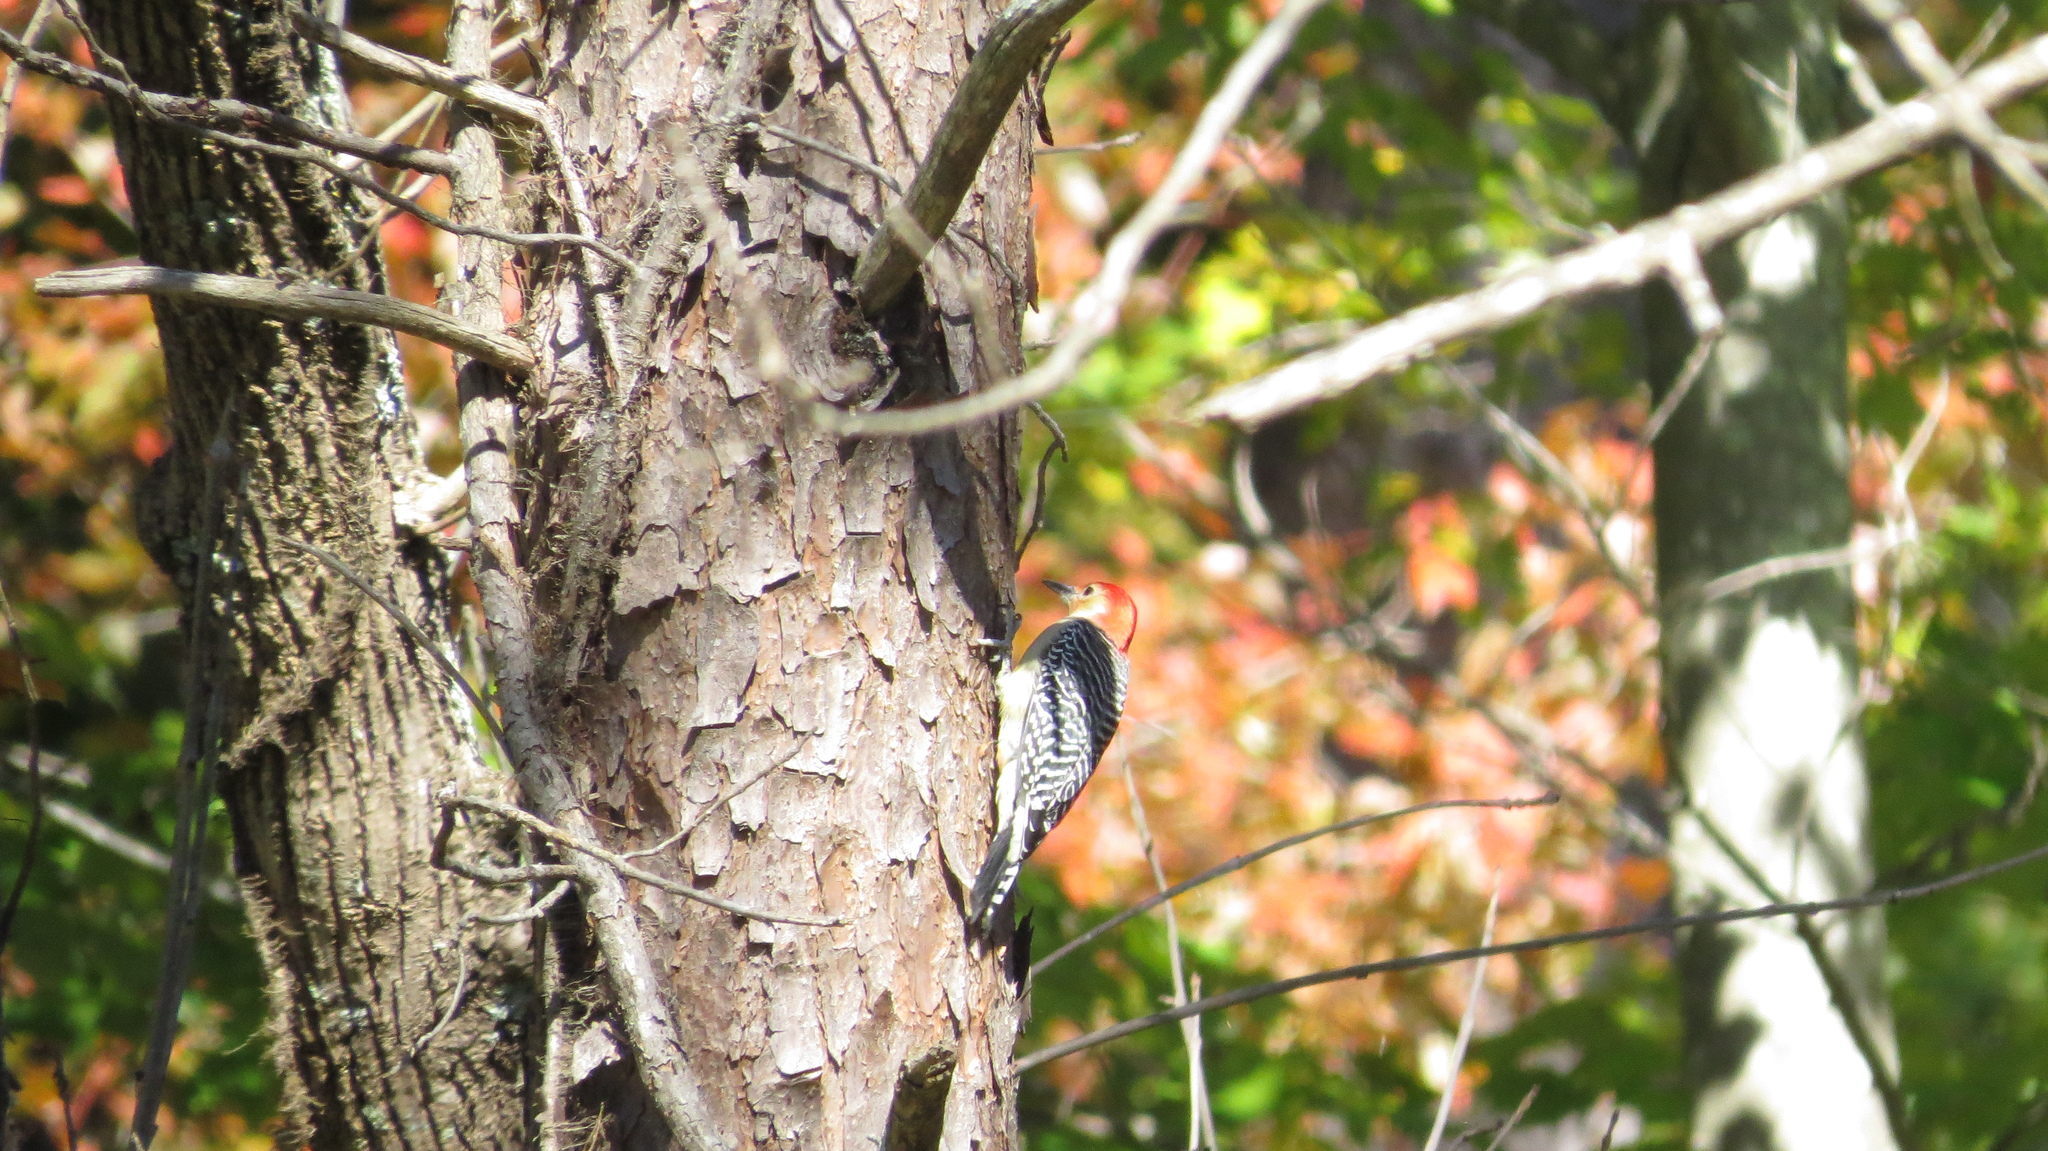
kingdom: Animalia
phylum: Chordata
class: Aves
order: Piciformes
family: Picidae
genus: Melanerpes
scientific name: Melanerpes carolinus
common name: Red-bellied woodpecker
